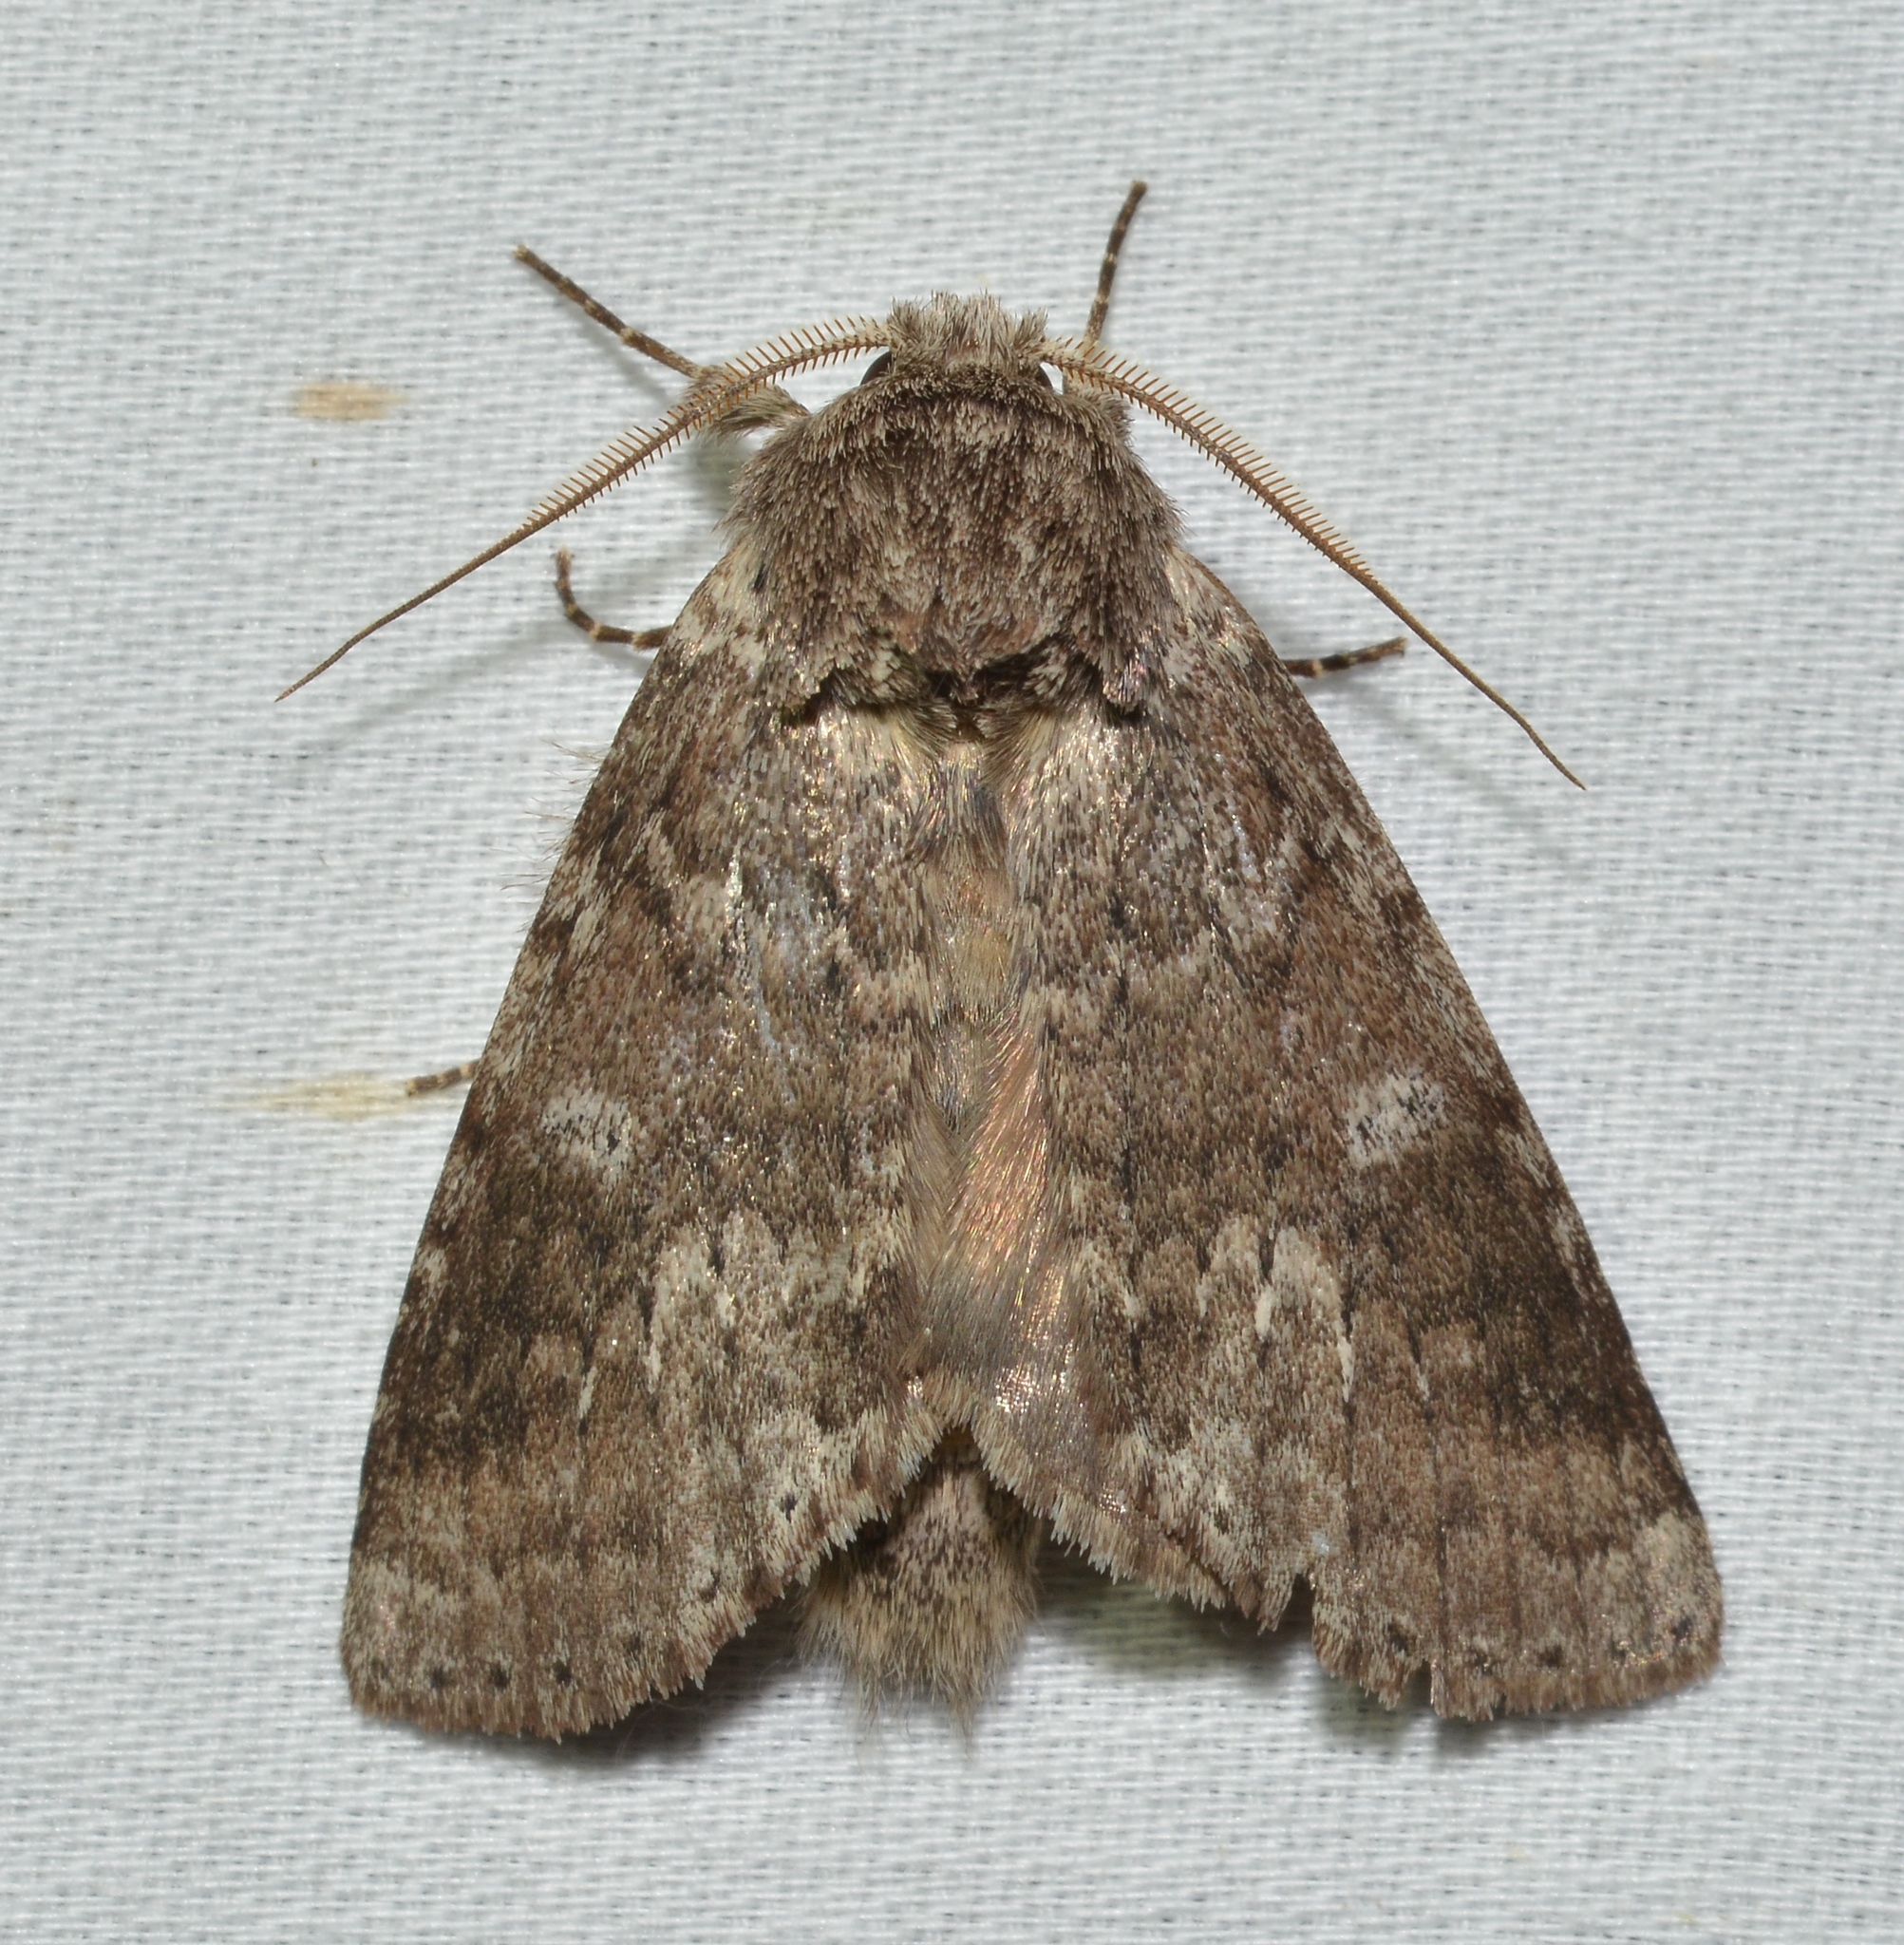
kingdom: Animalia
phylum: Arthropoda
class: Insecta
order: Lepidoptera
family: Notodontidae
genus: Lochmaeus
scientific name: Lochmaeus manteo
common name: Variable oakleaf caterpillar moth
